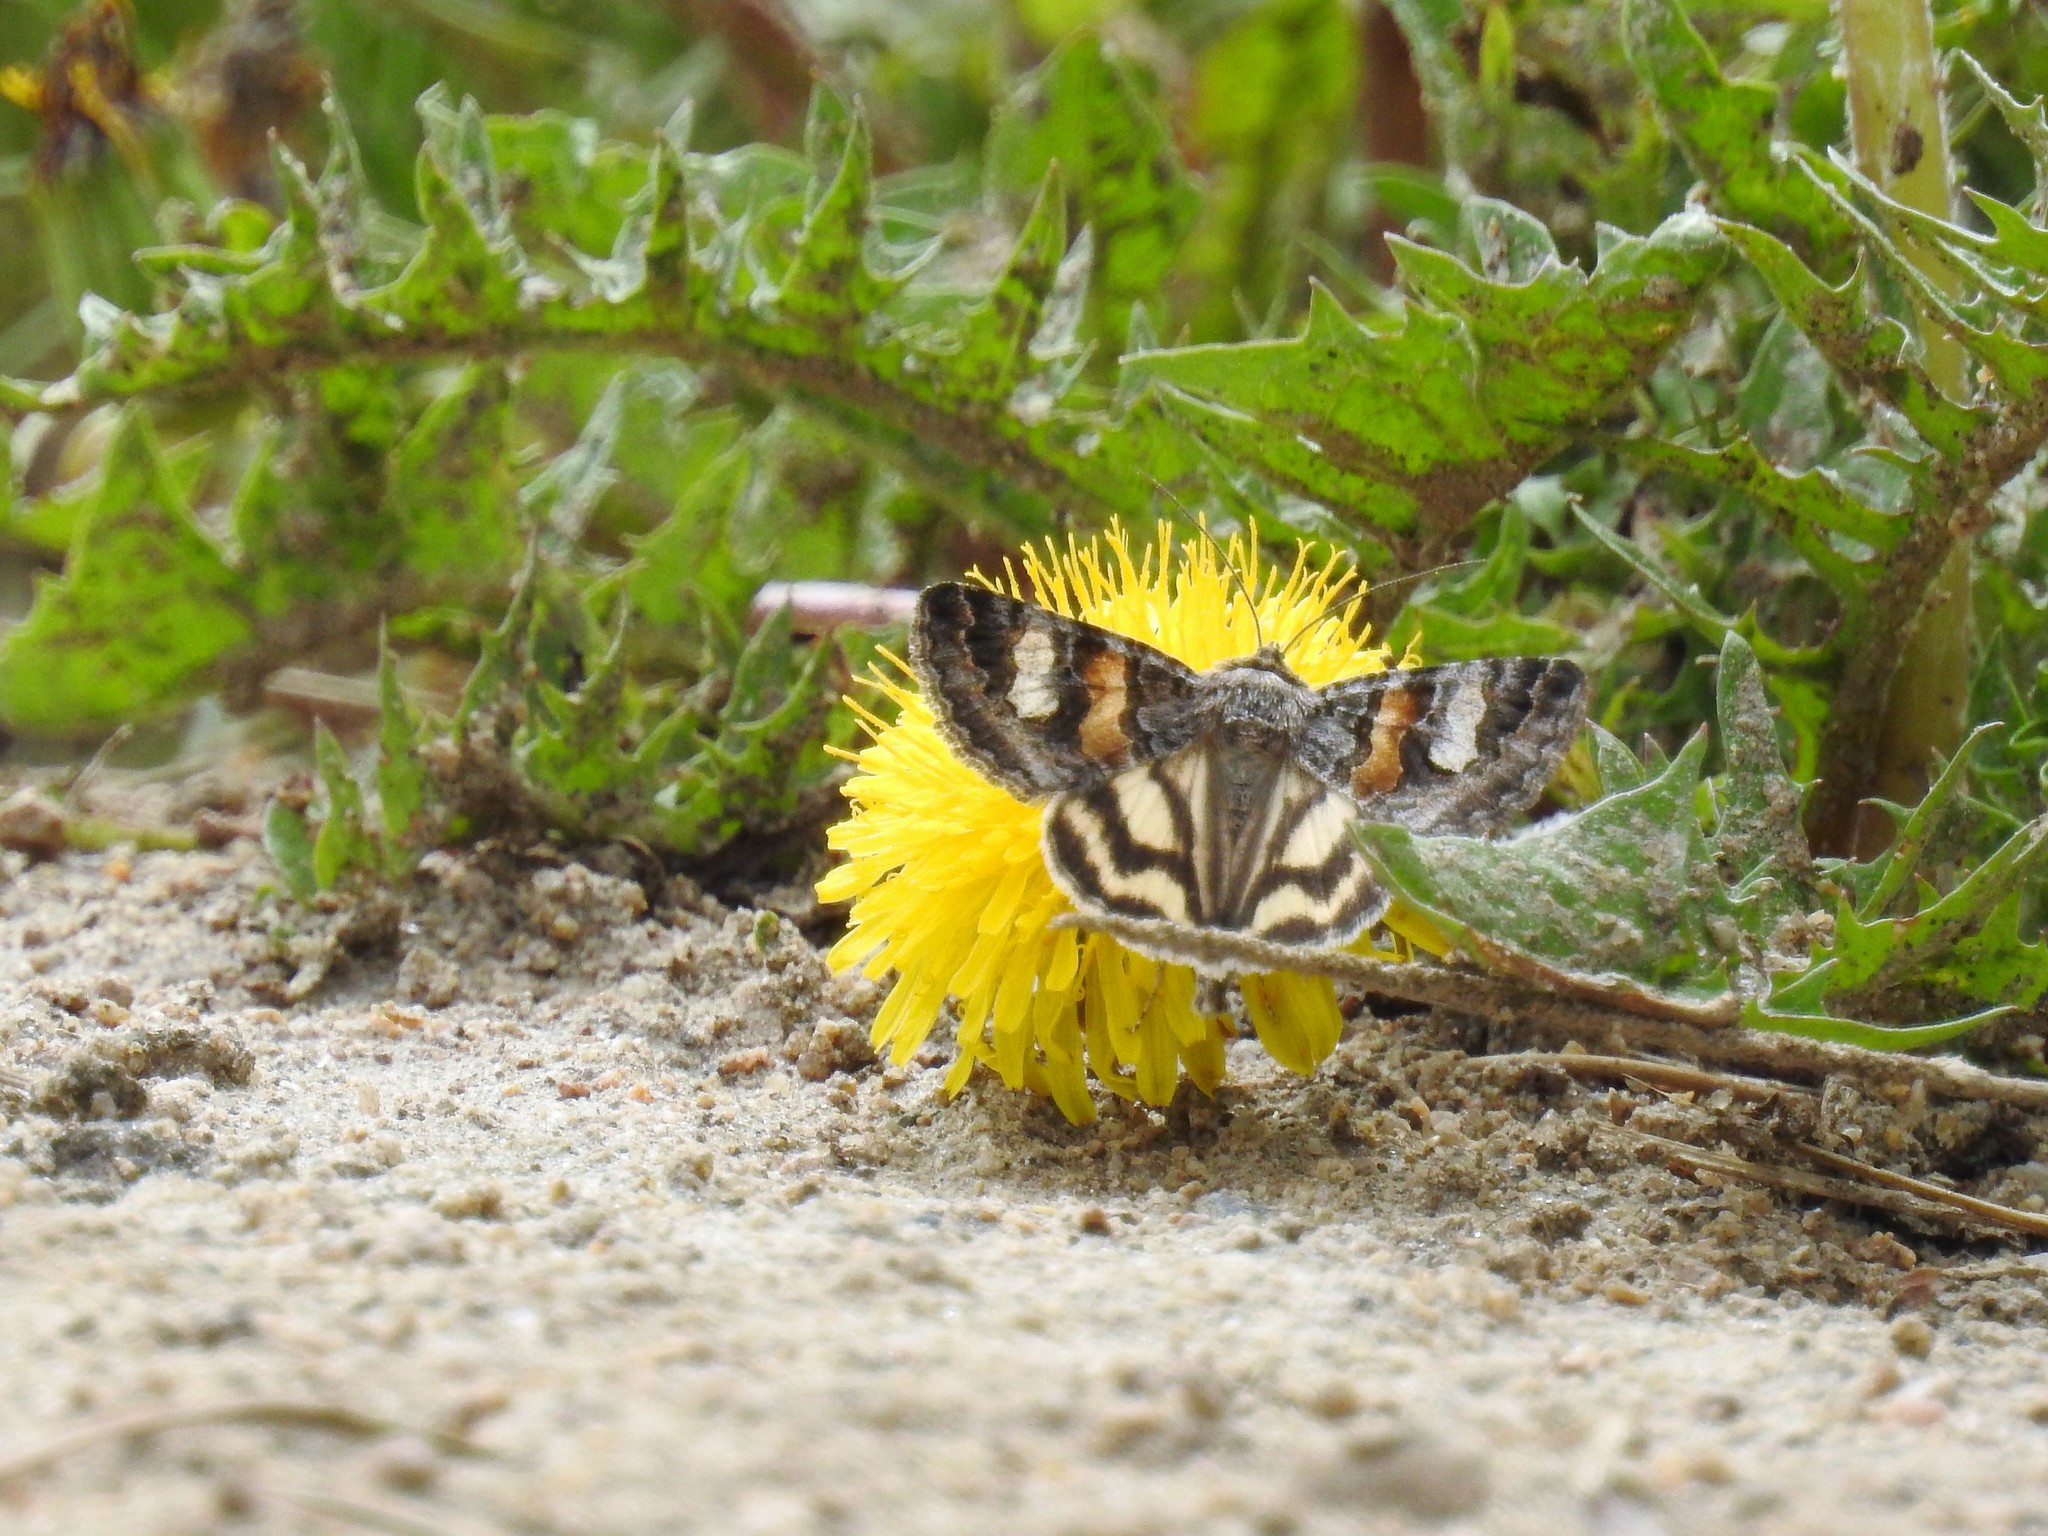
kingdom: Animalia
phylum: Arthropoda
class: Insecta
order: Lepidoptera
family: Erebidae
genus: Drasteria
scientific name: Drasteria hudsonica
